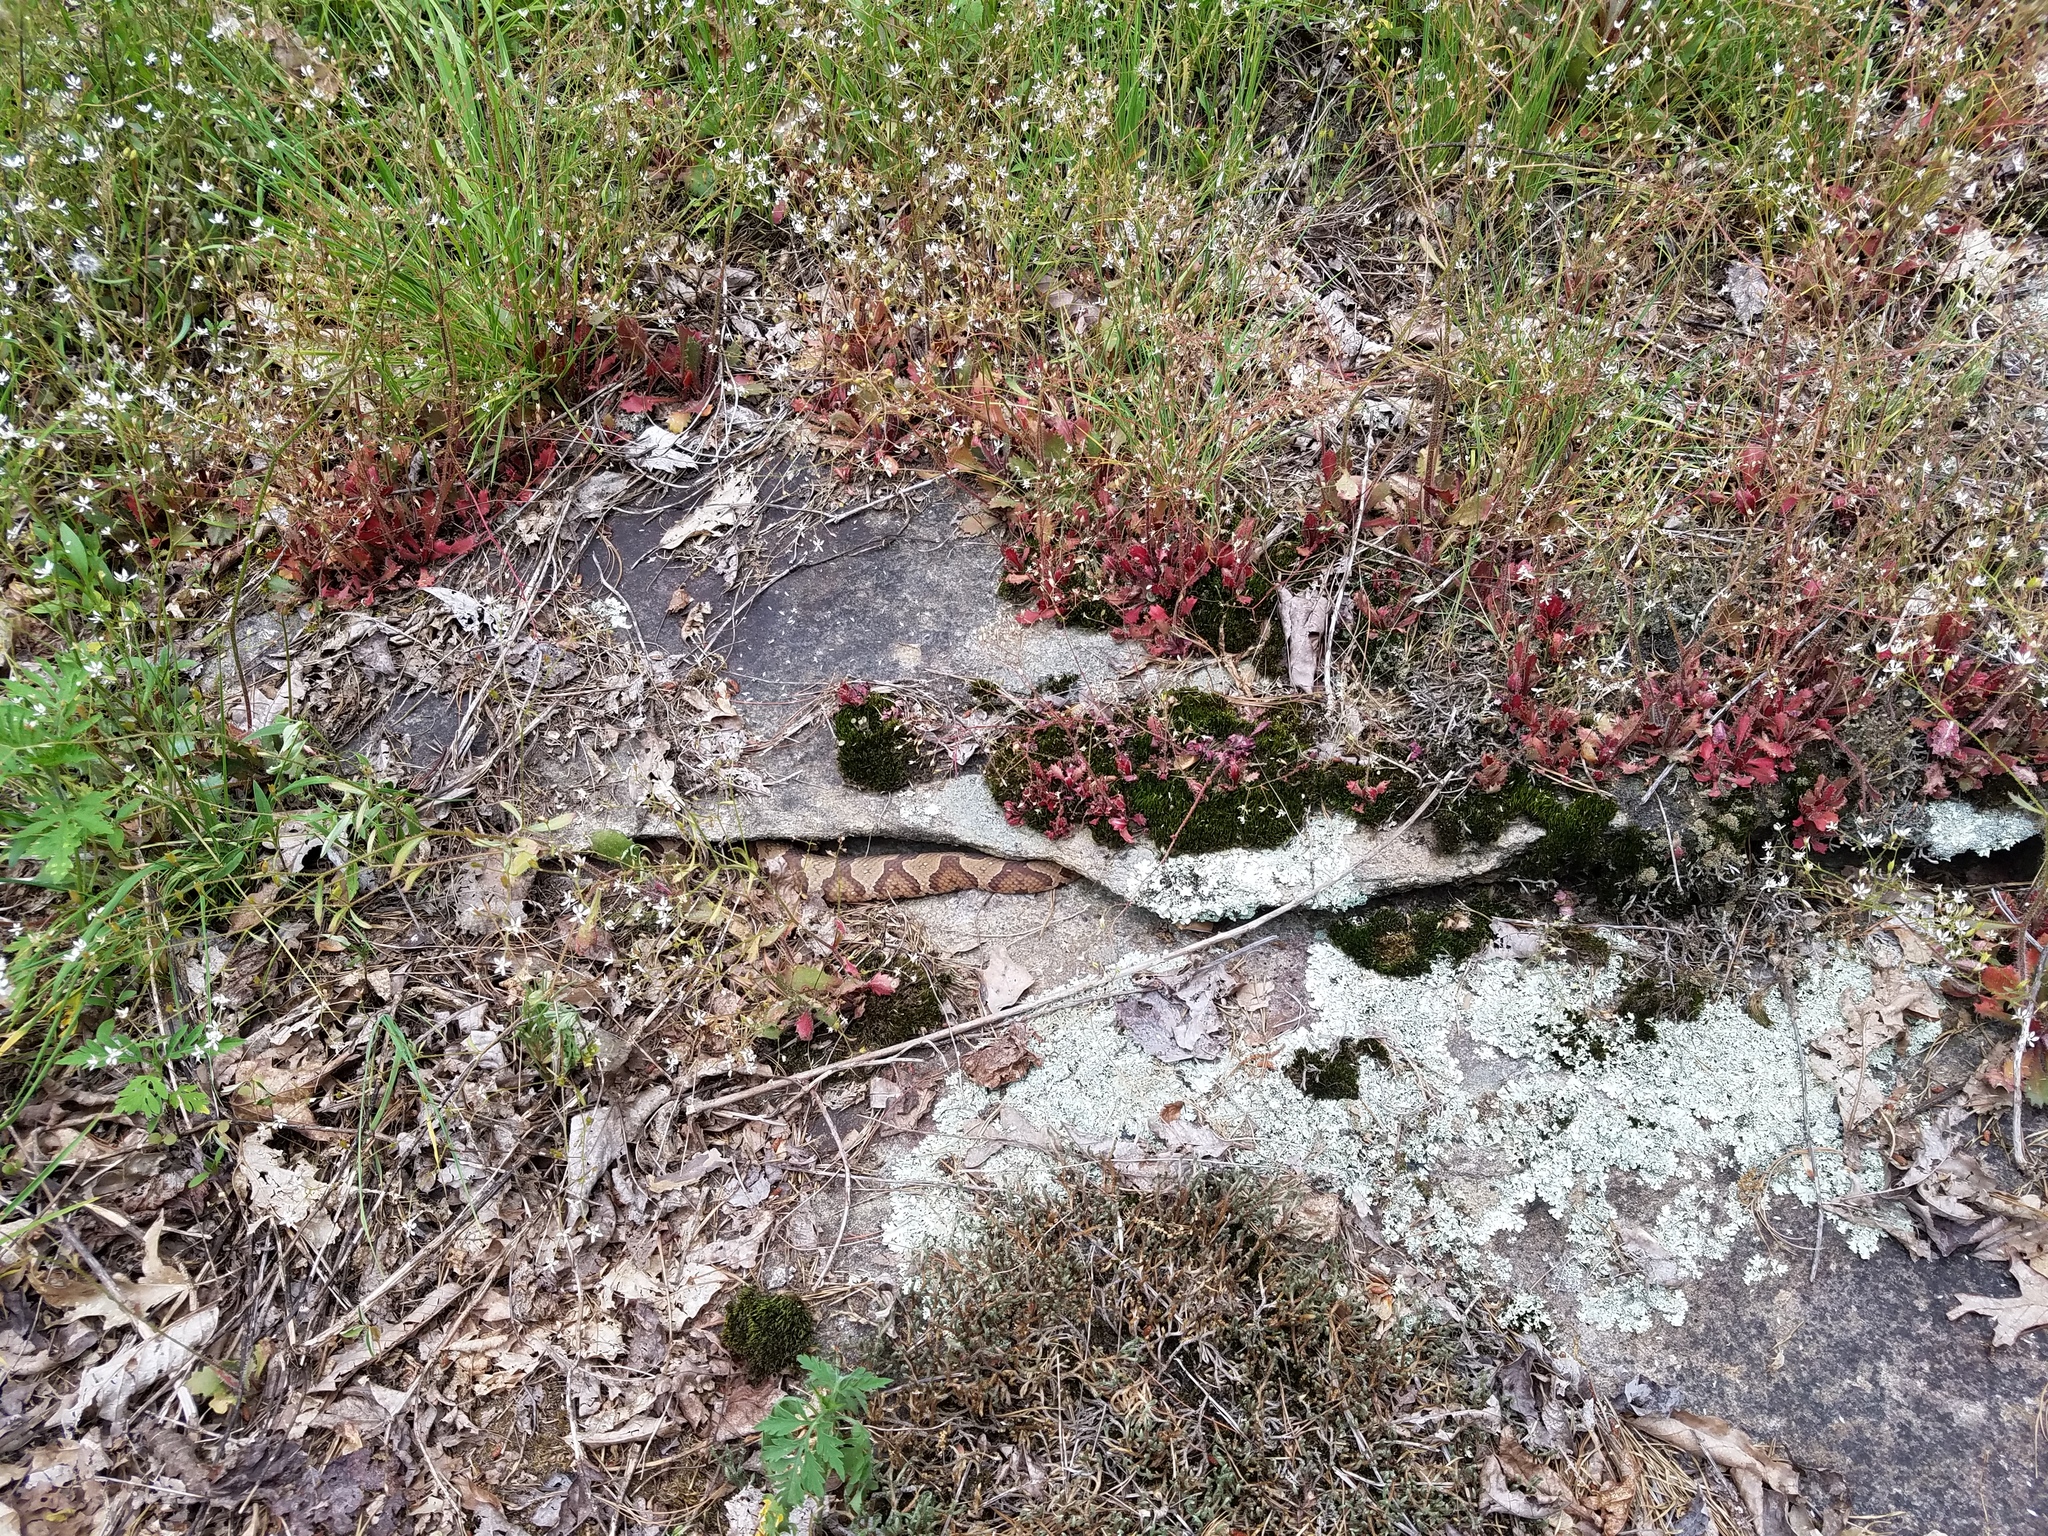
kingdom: Animalia
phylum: Chordata
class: Squamata
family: Viperidae
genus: Agkistrodon
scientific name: Agkistrodon contortrix
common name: Northern copperhead
